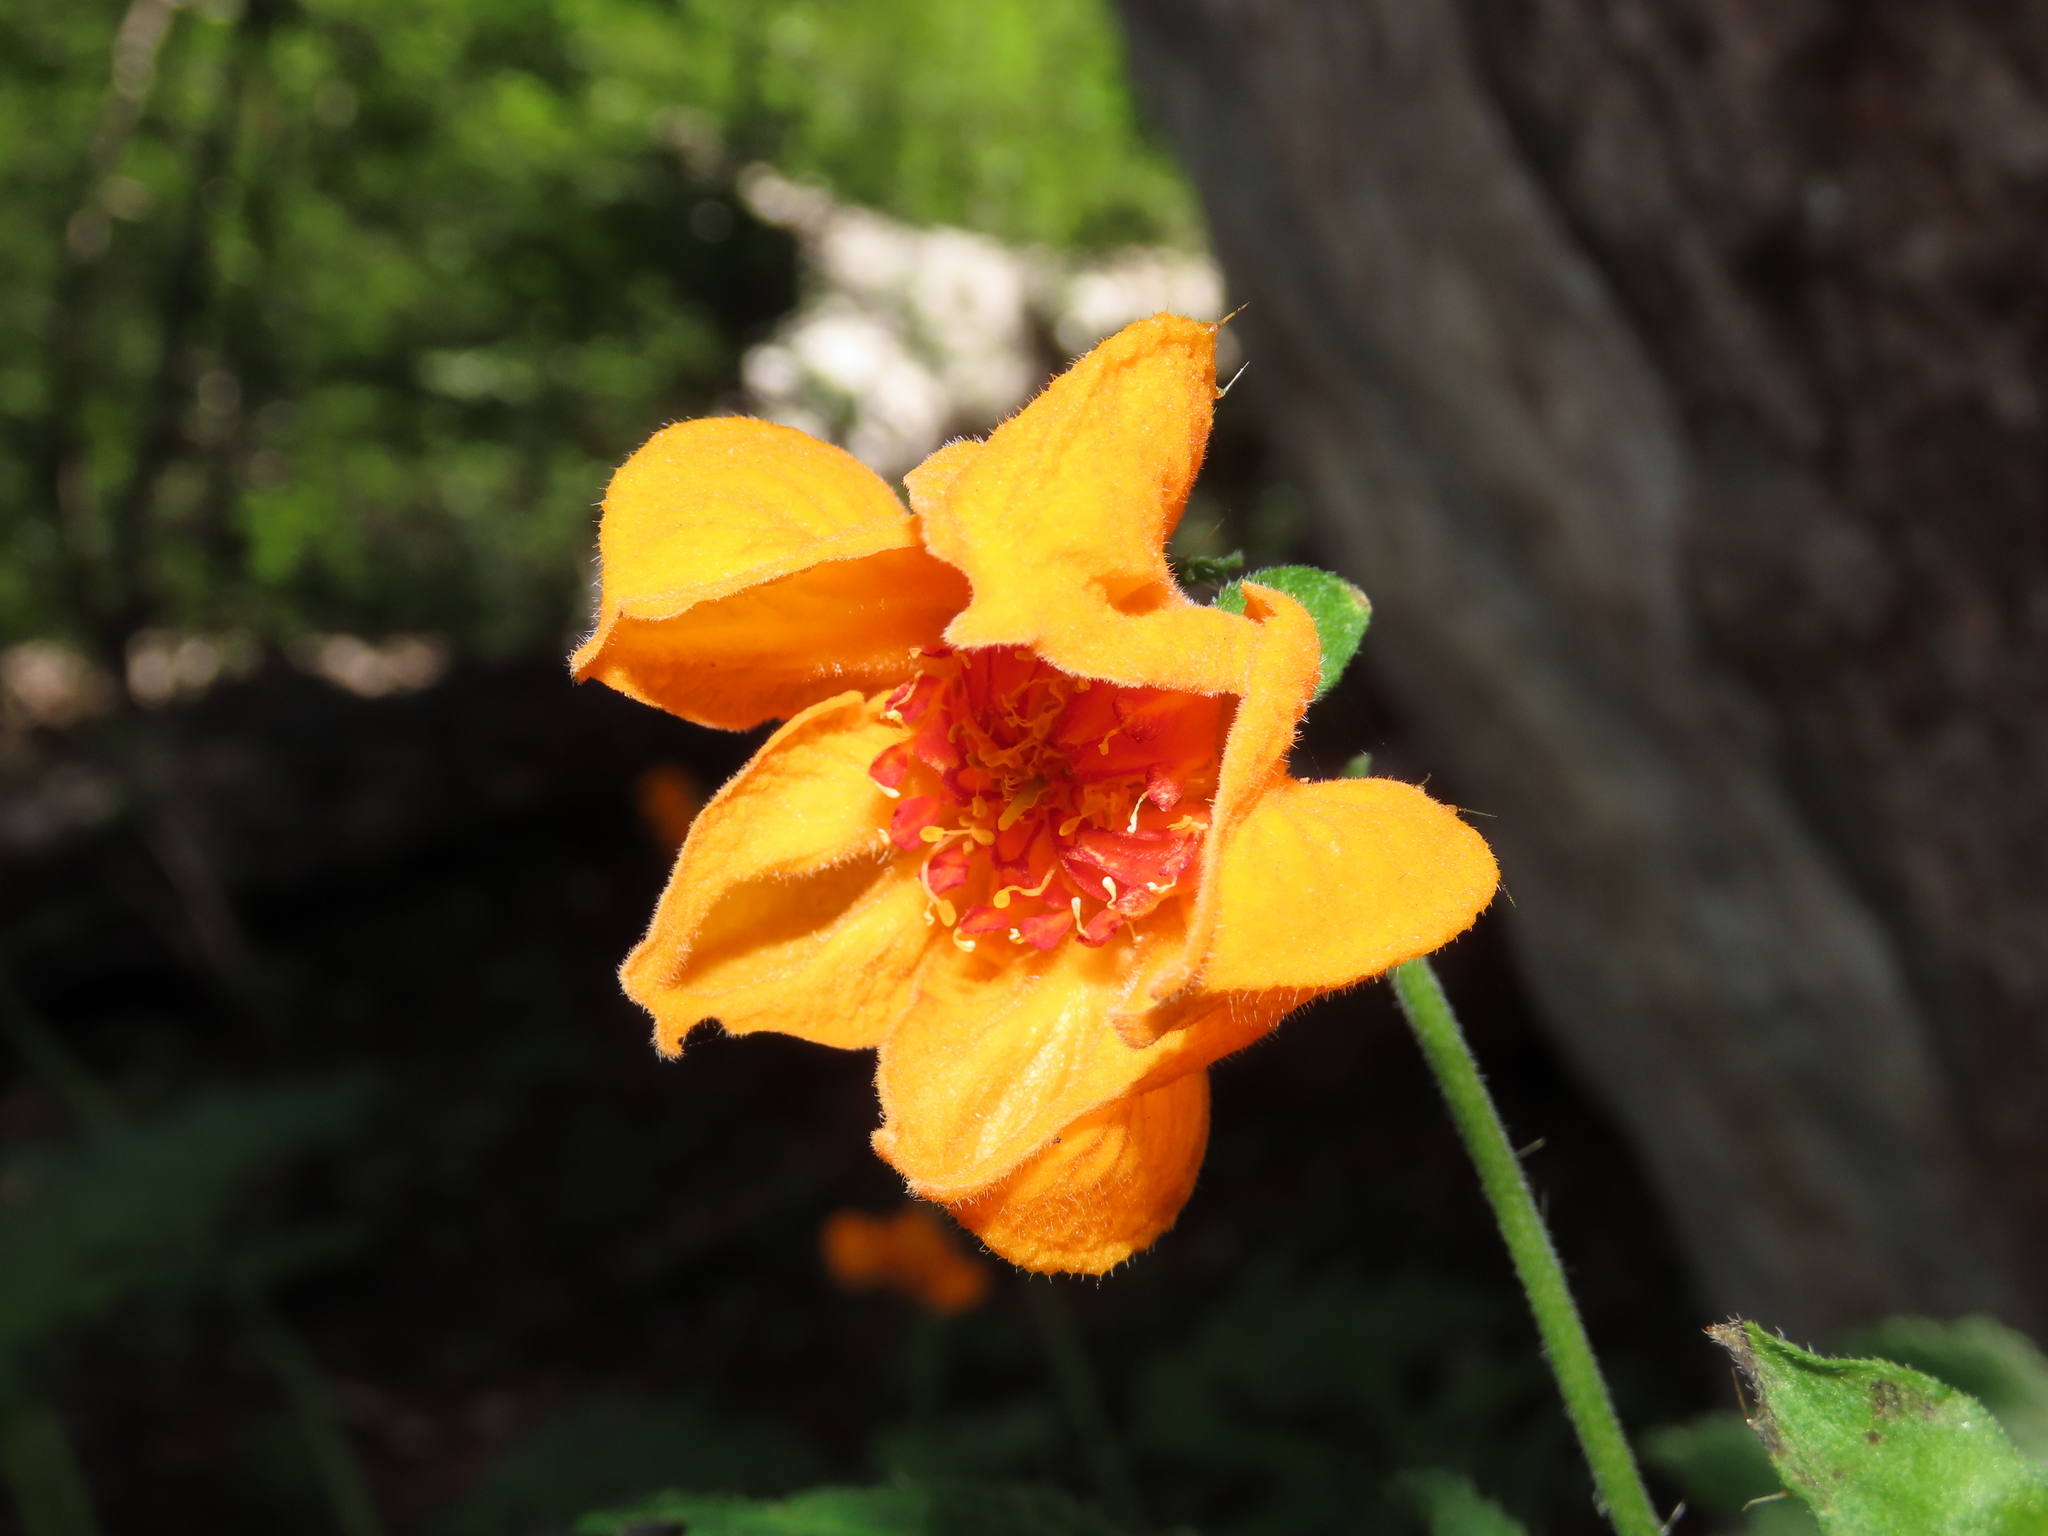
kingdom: Plantae
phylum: Tracheophyta
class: Magnoliopsida
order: Cornales
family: Loasaceae
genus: Loasa
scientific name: Loasa acanthifolia
